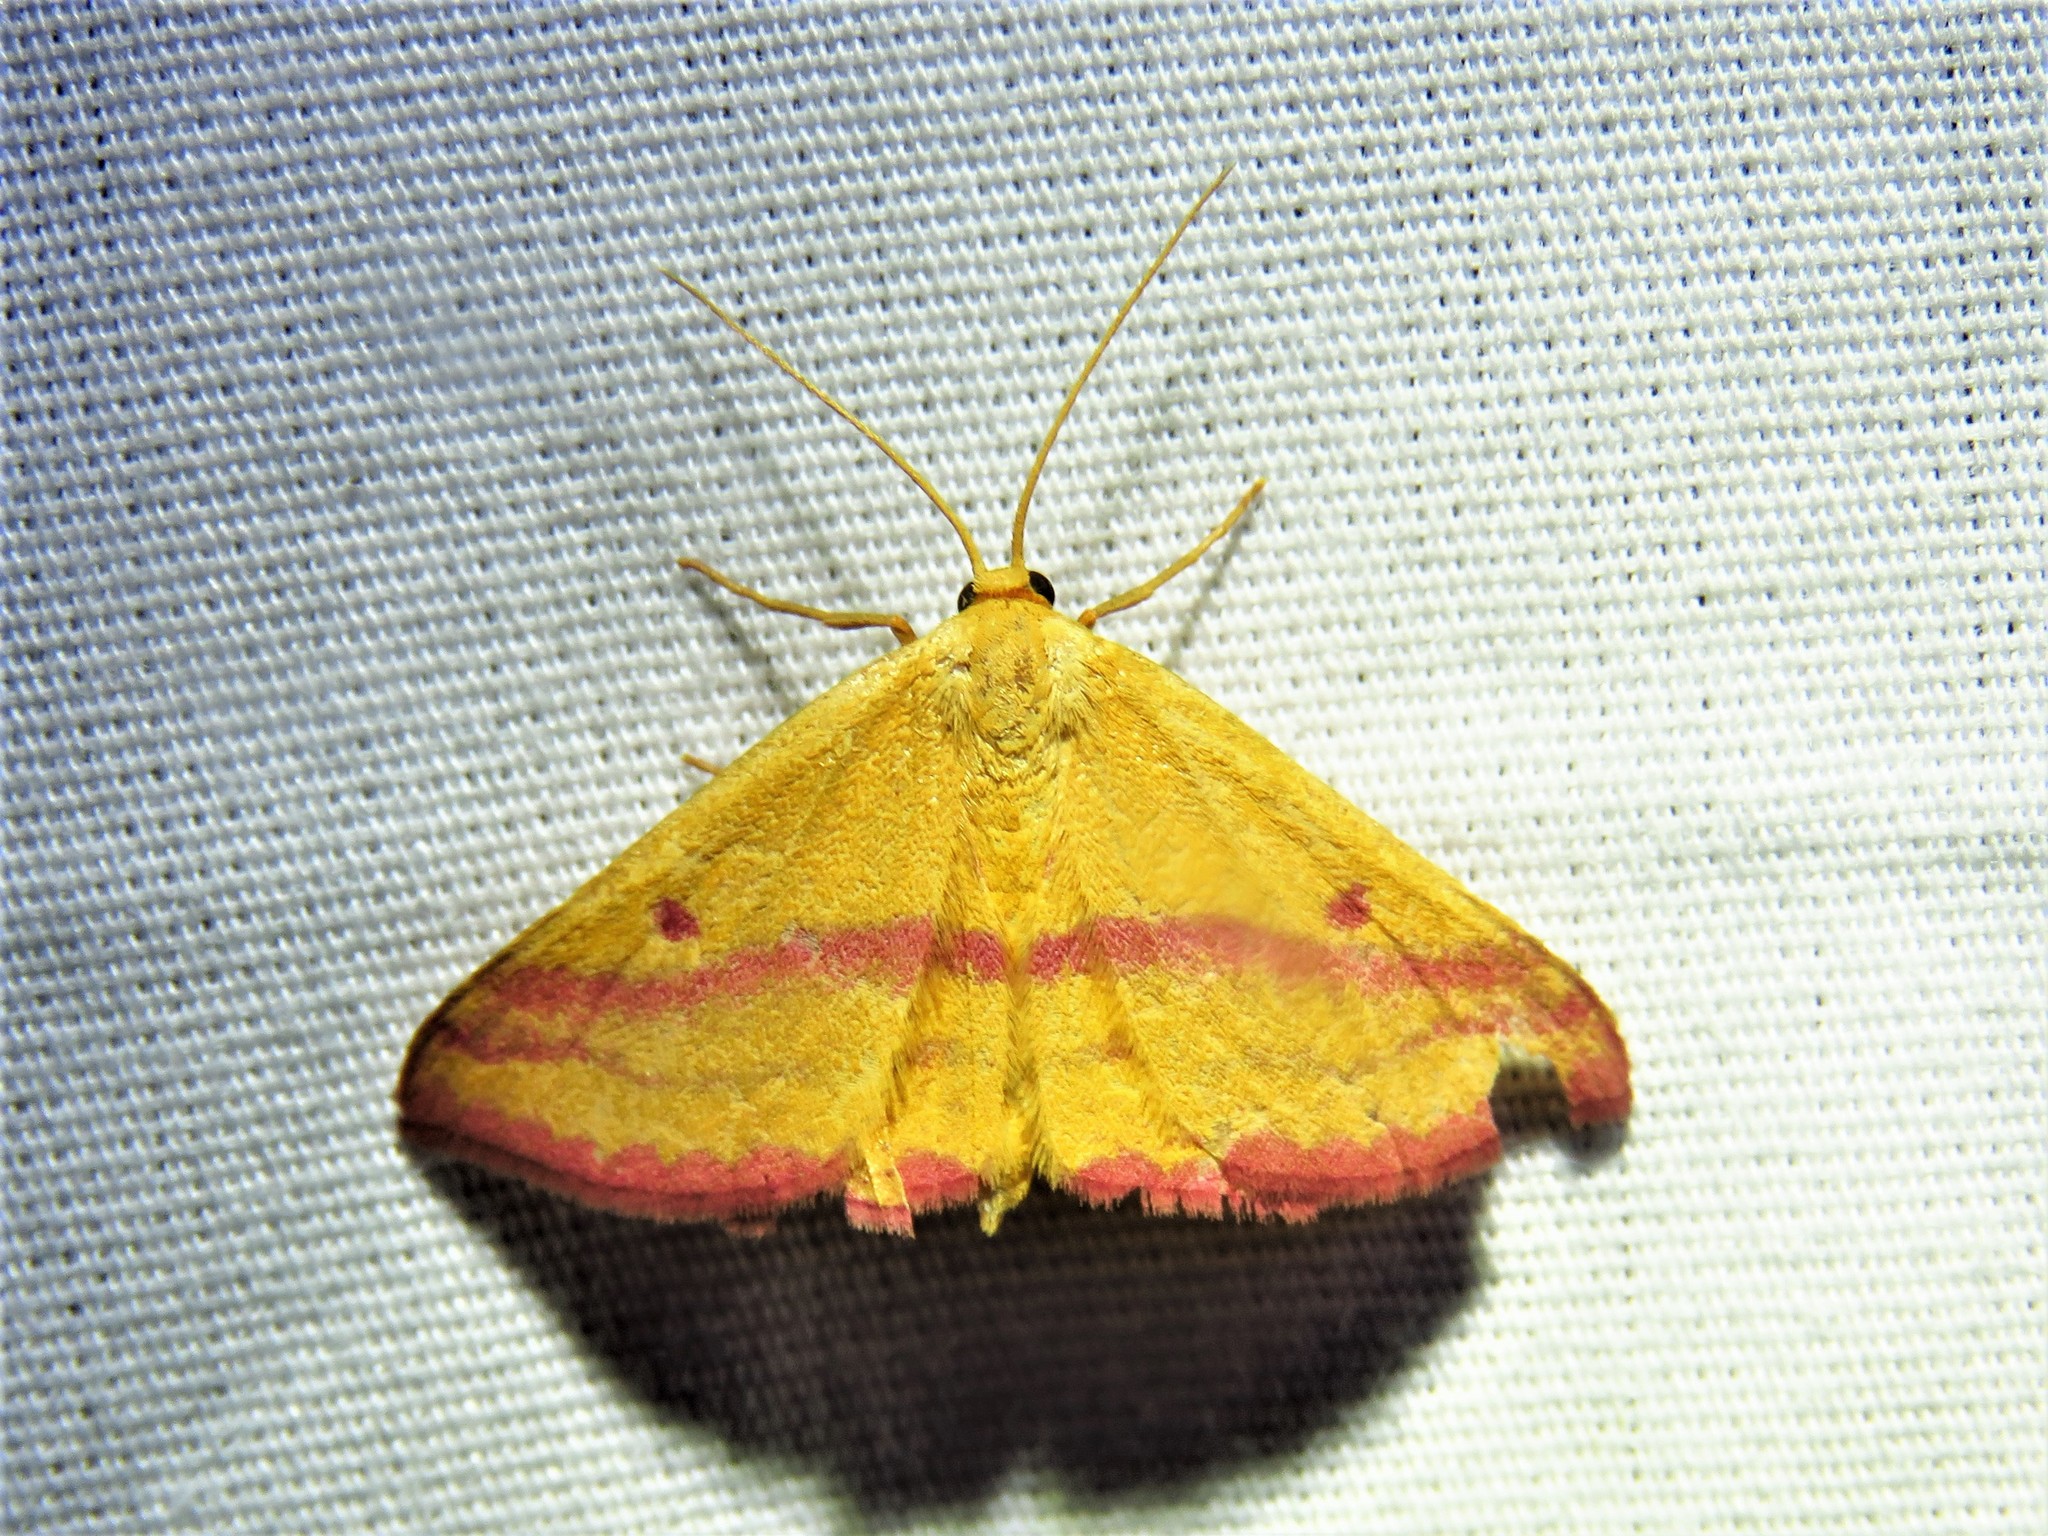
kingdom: Animalia
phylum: Arthropoda
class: Insecta
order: Lepidoptera
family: Geometridae
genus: Haematopis
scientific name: Haematopis grataria
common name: Chickweed geometer
